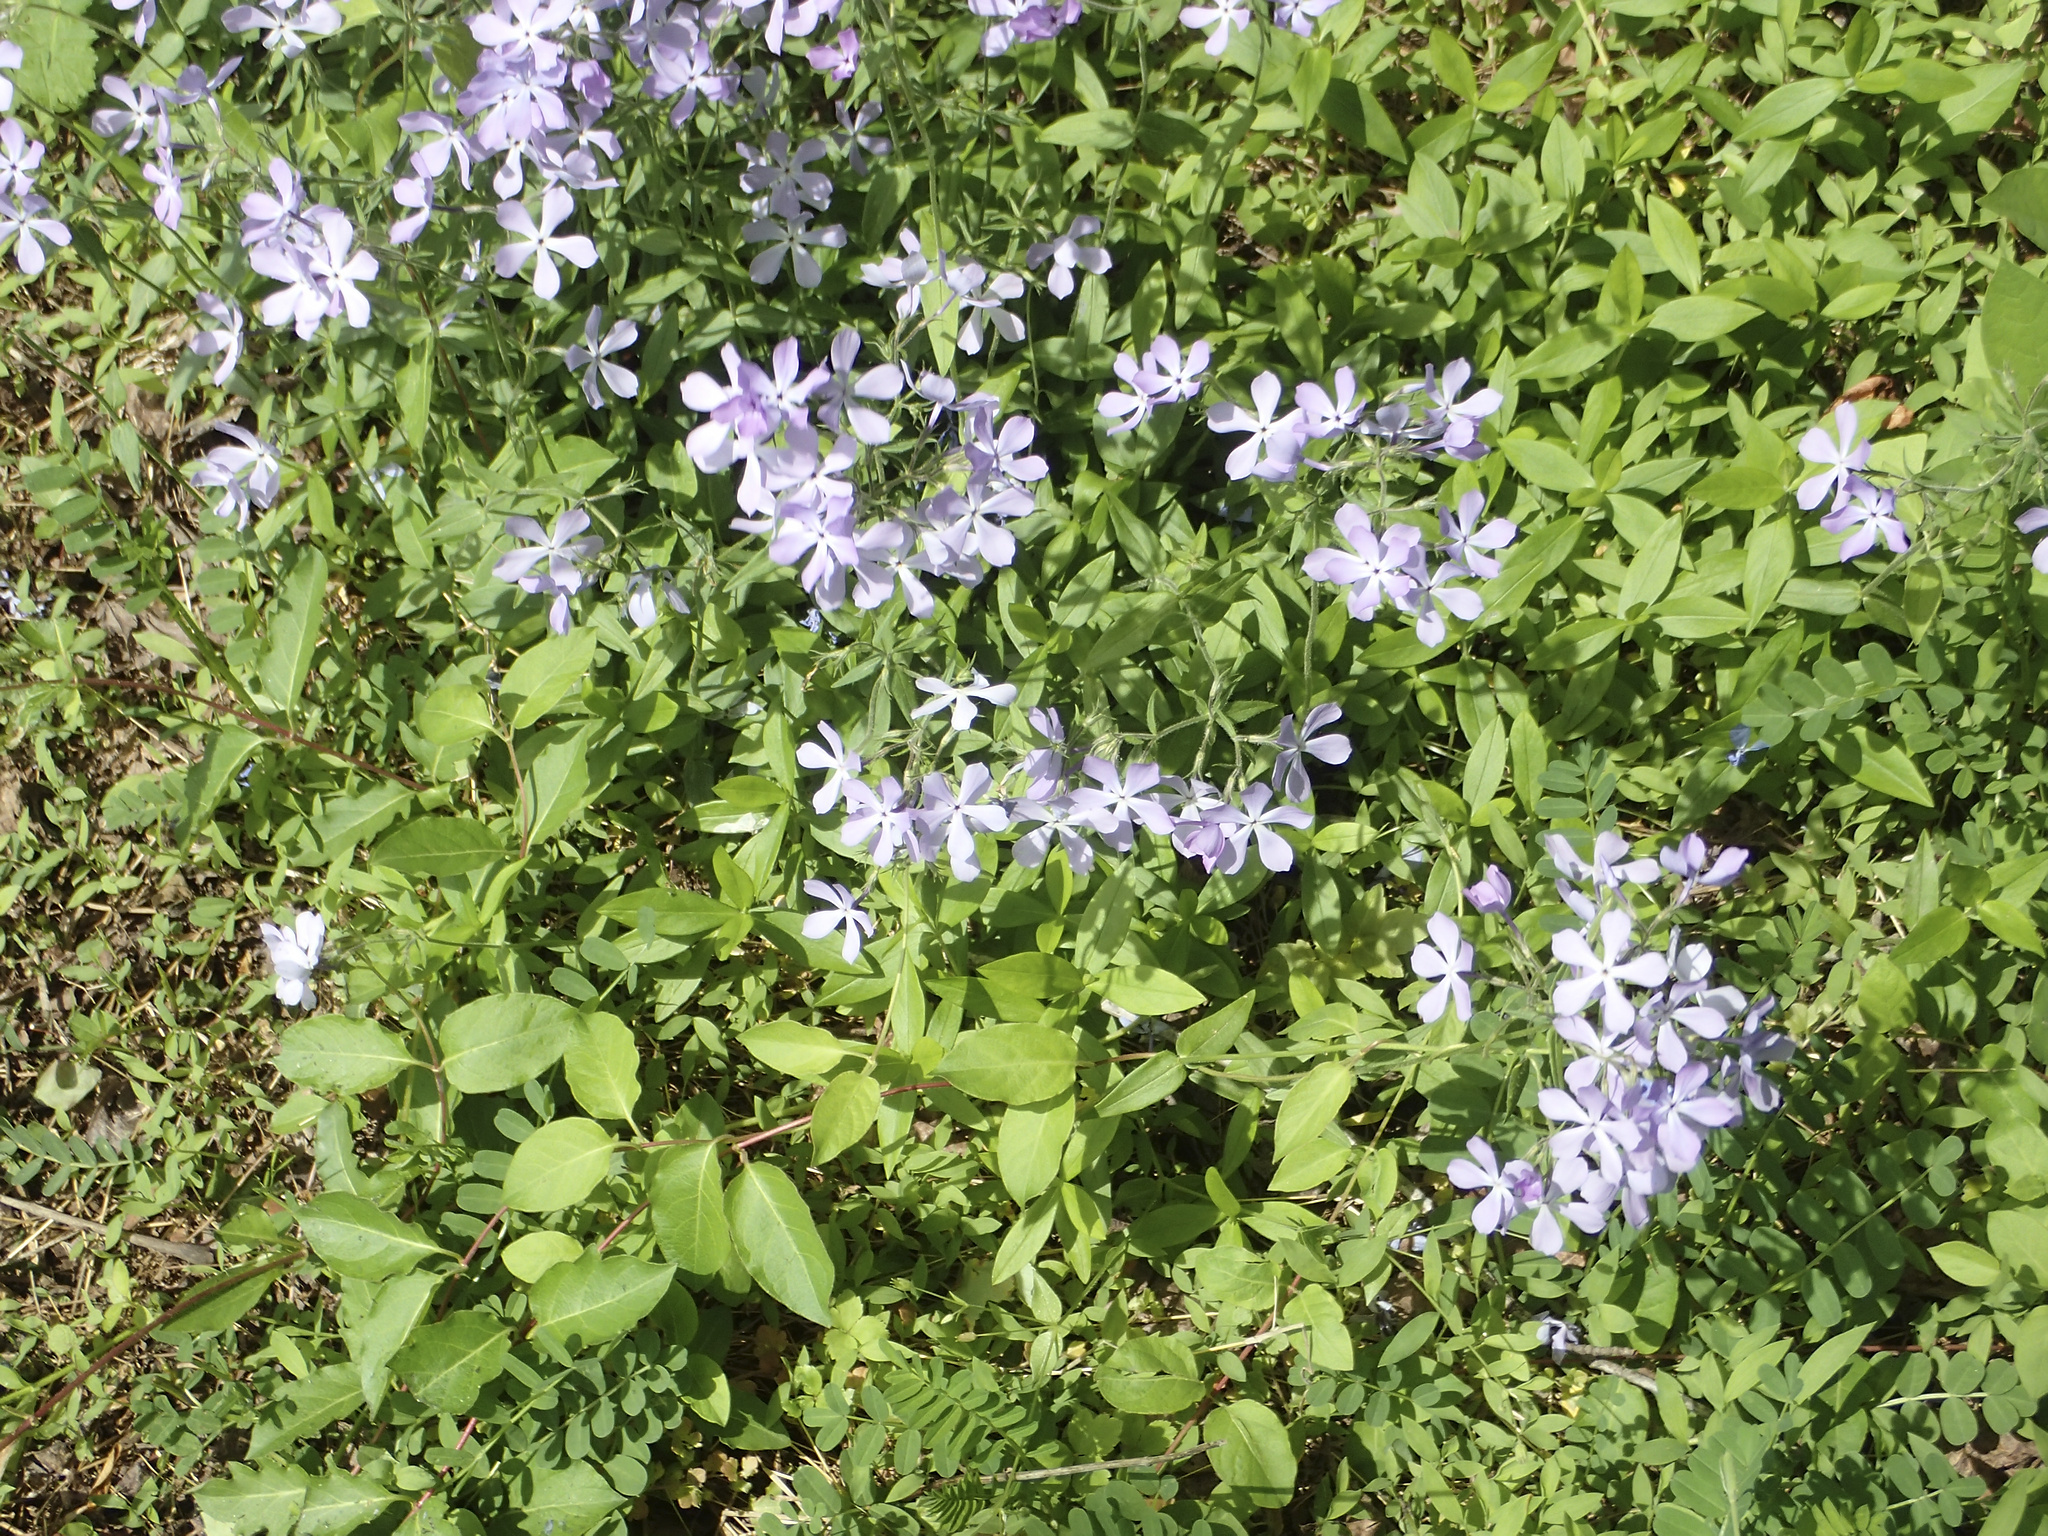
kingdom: Plantae
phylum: Tracheophyta
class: Magnoliopsida
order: Ericales
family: Polemoniaceae
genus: Phlox
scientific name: Phlox divaricata
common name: Blue phlox
